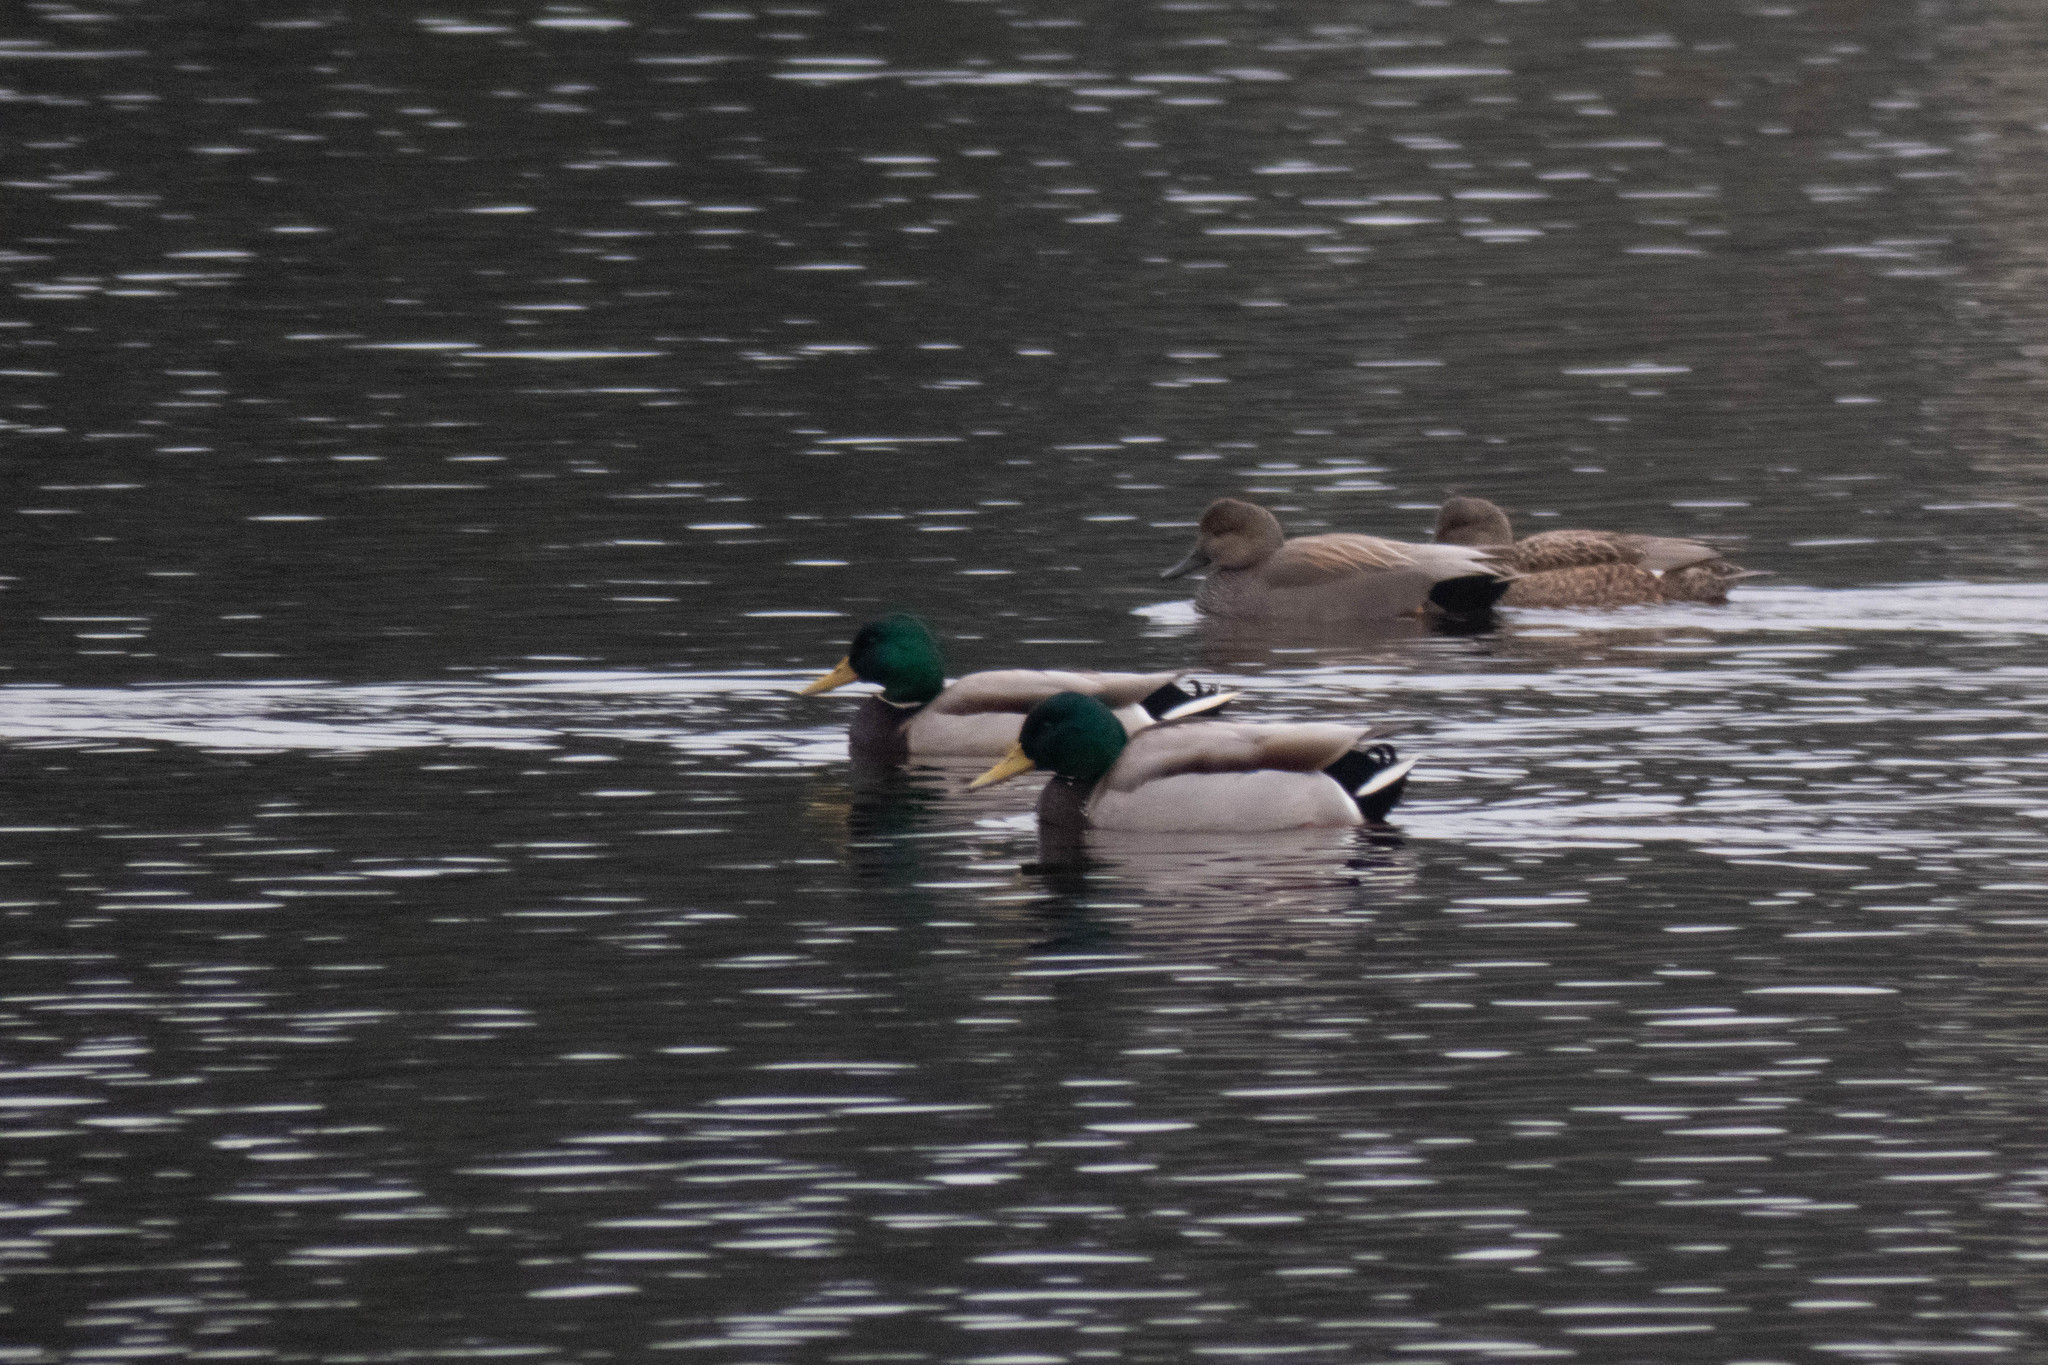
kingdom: Animalia
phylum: Chordata
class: Aves
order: Anseriformes
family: Anatidae
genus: Anas
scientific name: Anas platyrhynchos
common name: Mallard
